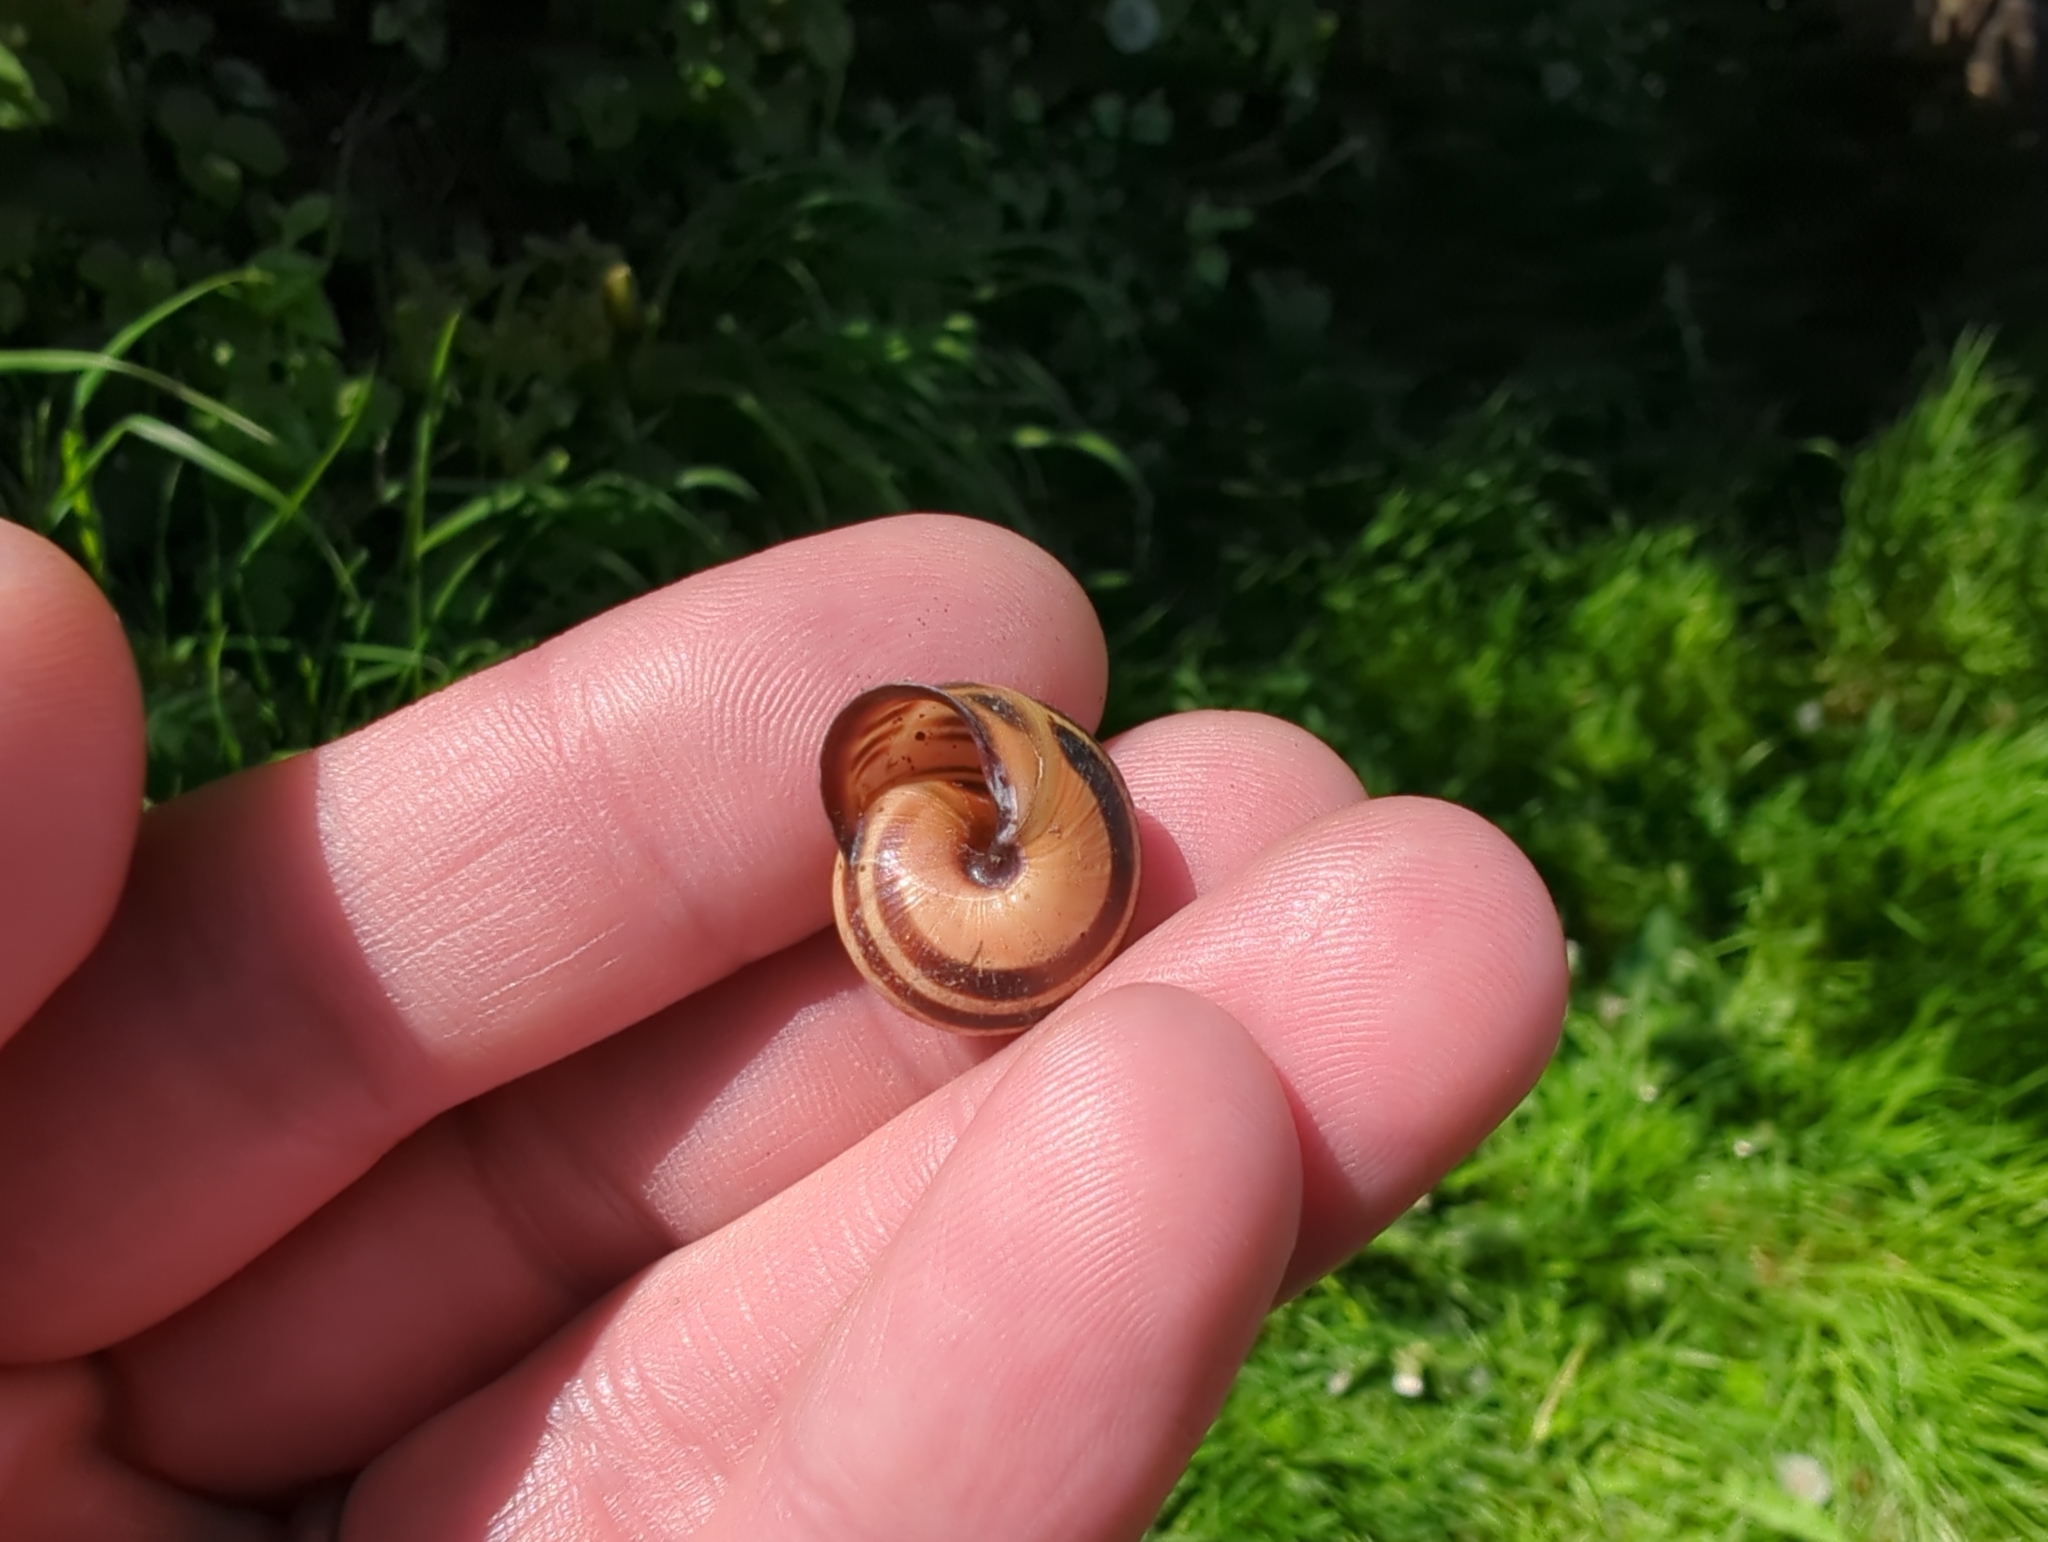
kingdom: Animalia
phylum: Mollusca
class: Gastropoda
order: Stylommatophora
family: Helicidae
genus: Cepaea
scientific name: Cepaea nemoralis
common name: Grovesnail
